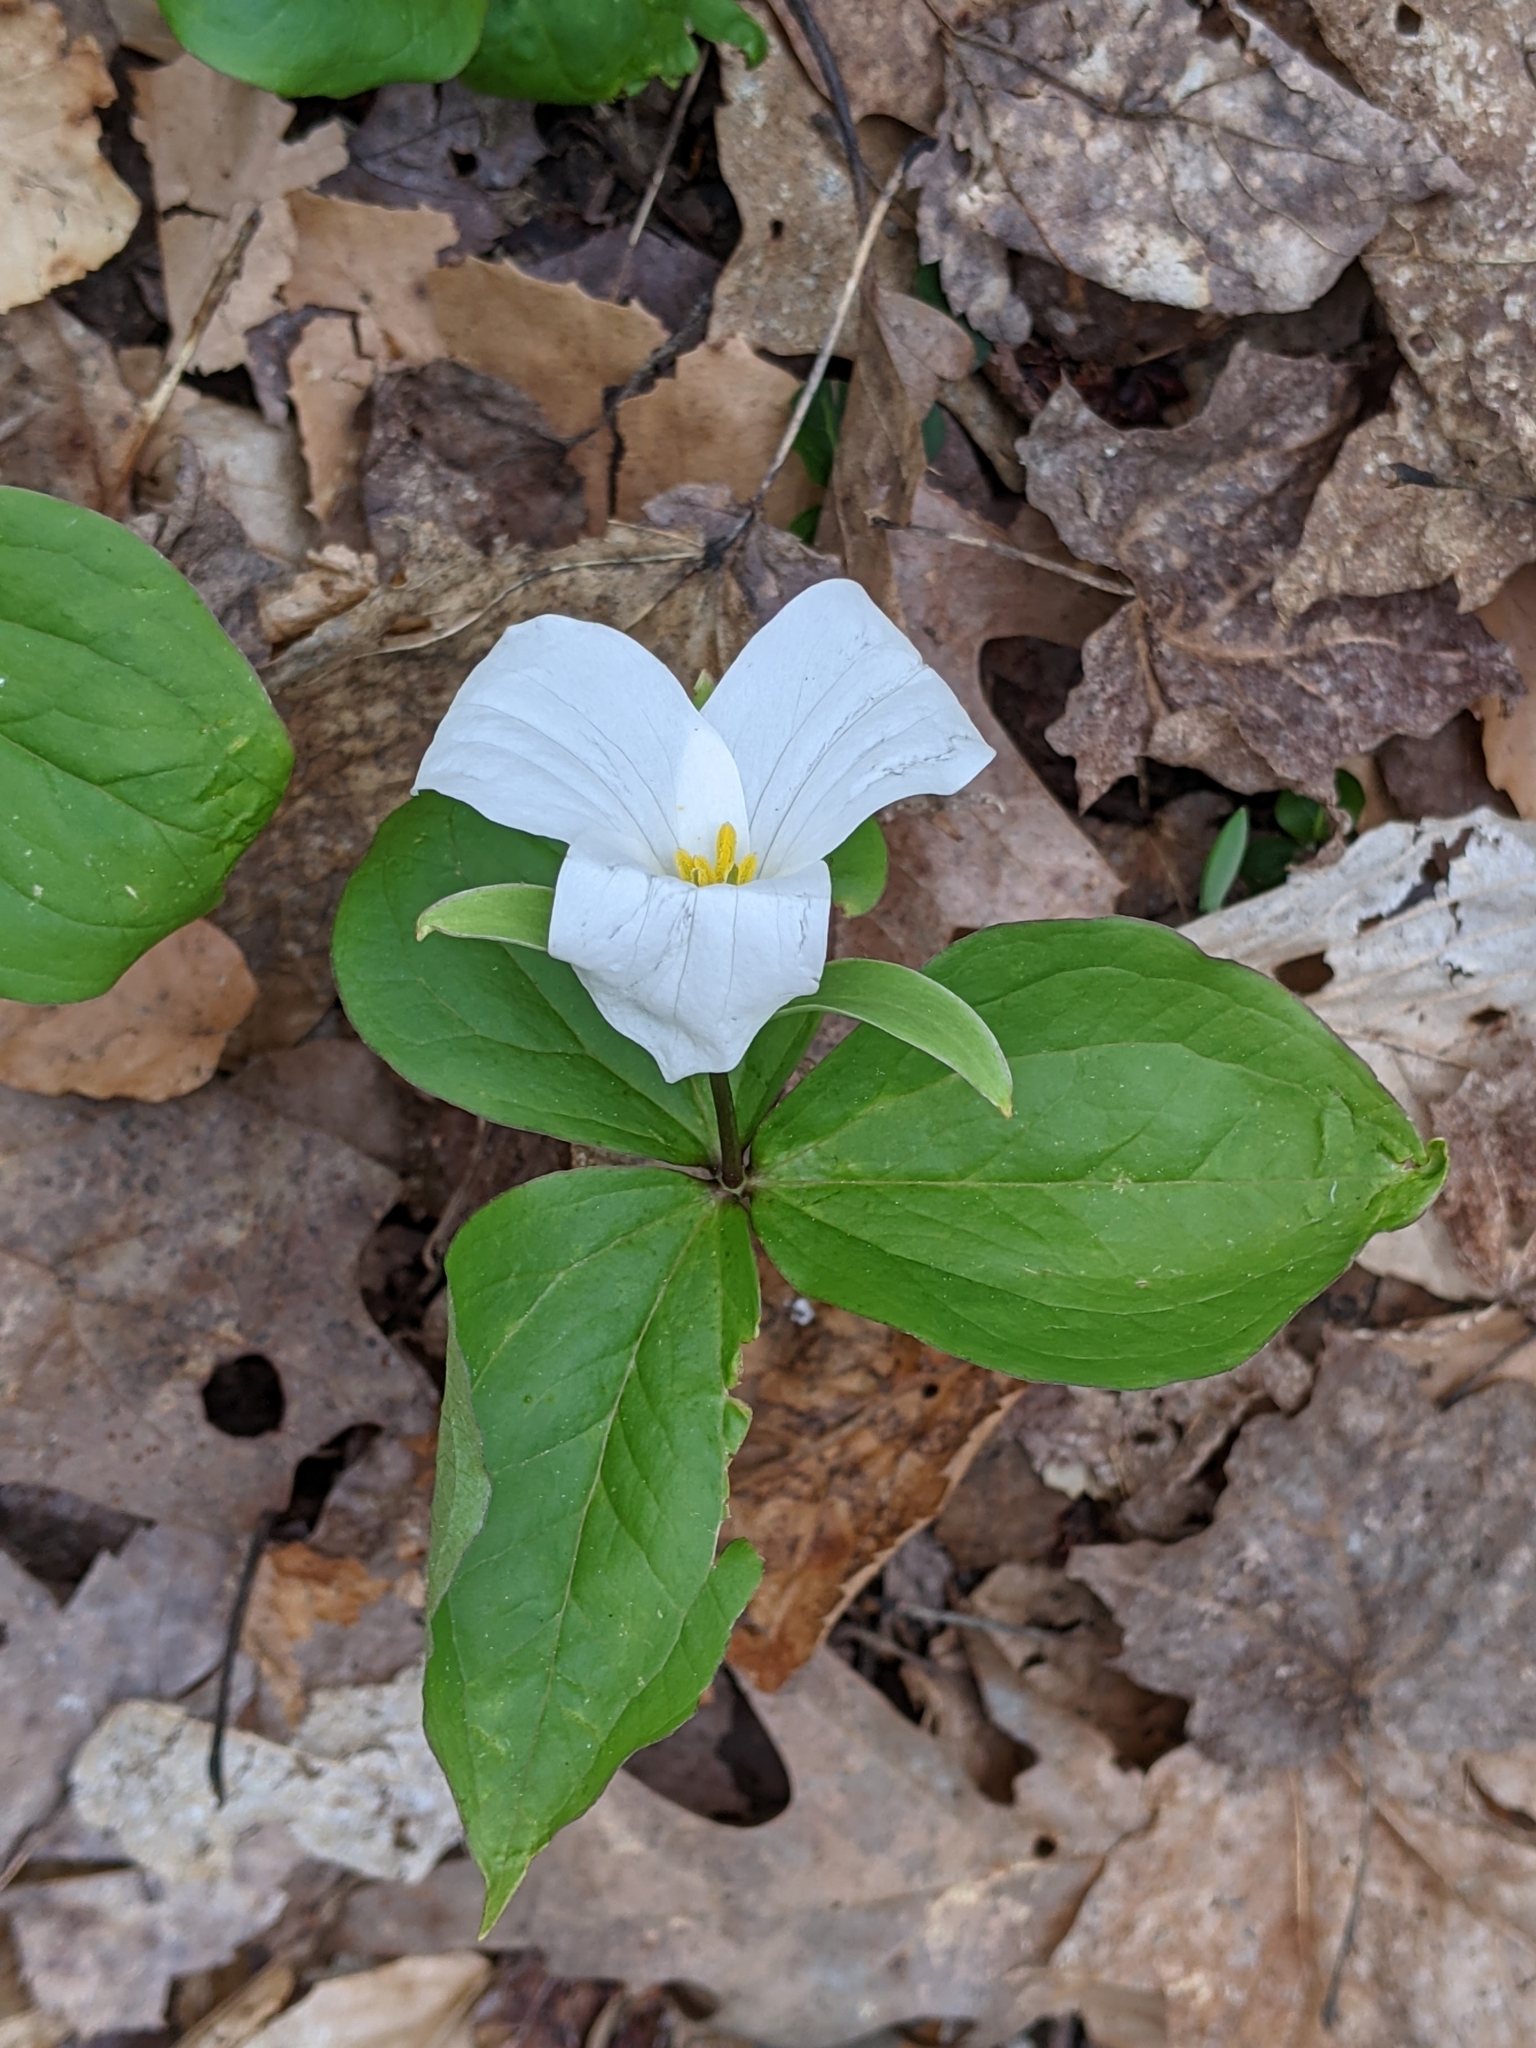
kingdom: Plantae
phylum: Tracheophyta
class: Liliopsida
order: Liliales
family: Melanthiaceae
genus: Trillium
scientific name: Trillium grandiflorum
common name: Great white trillium
